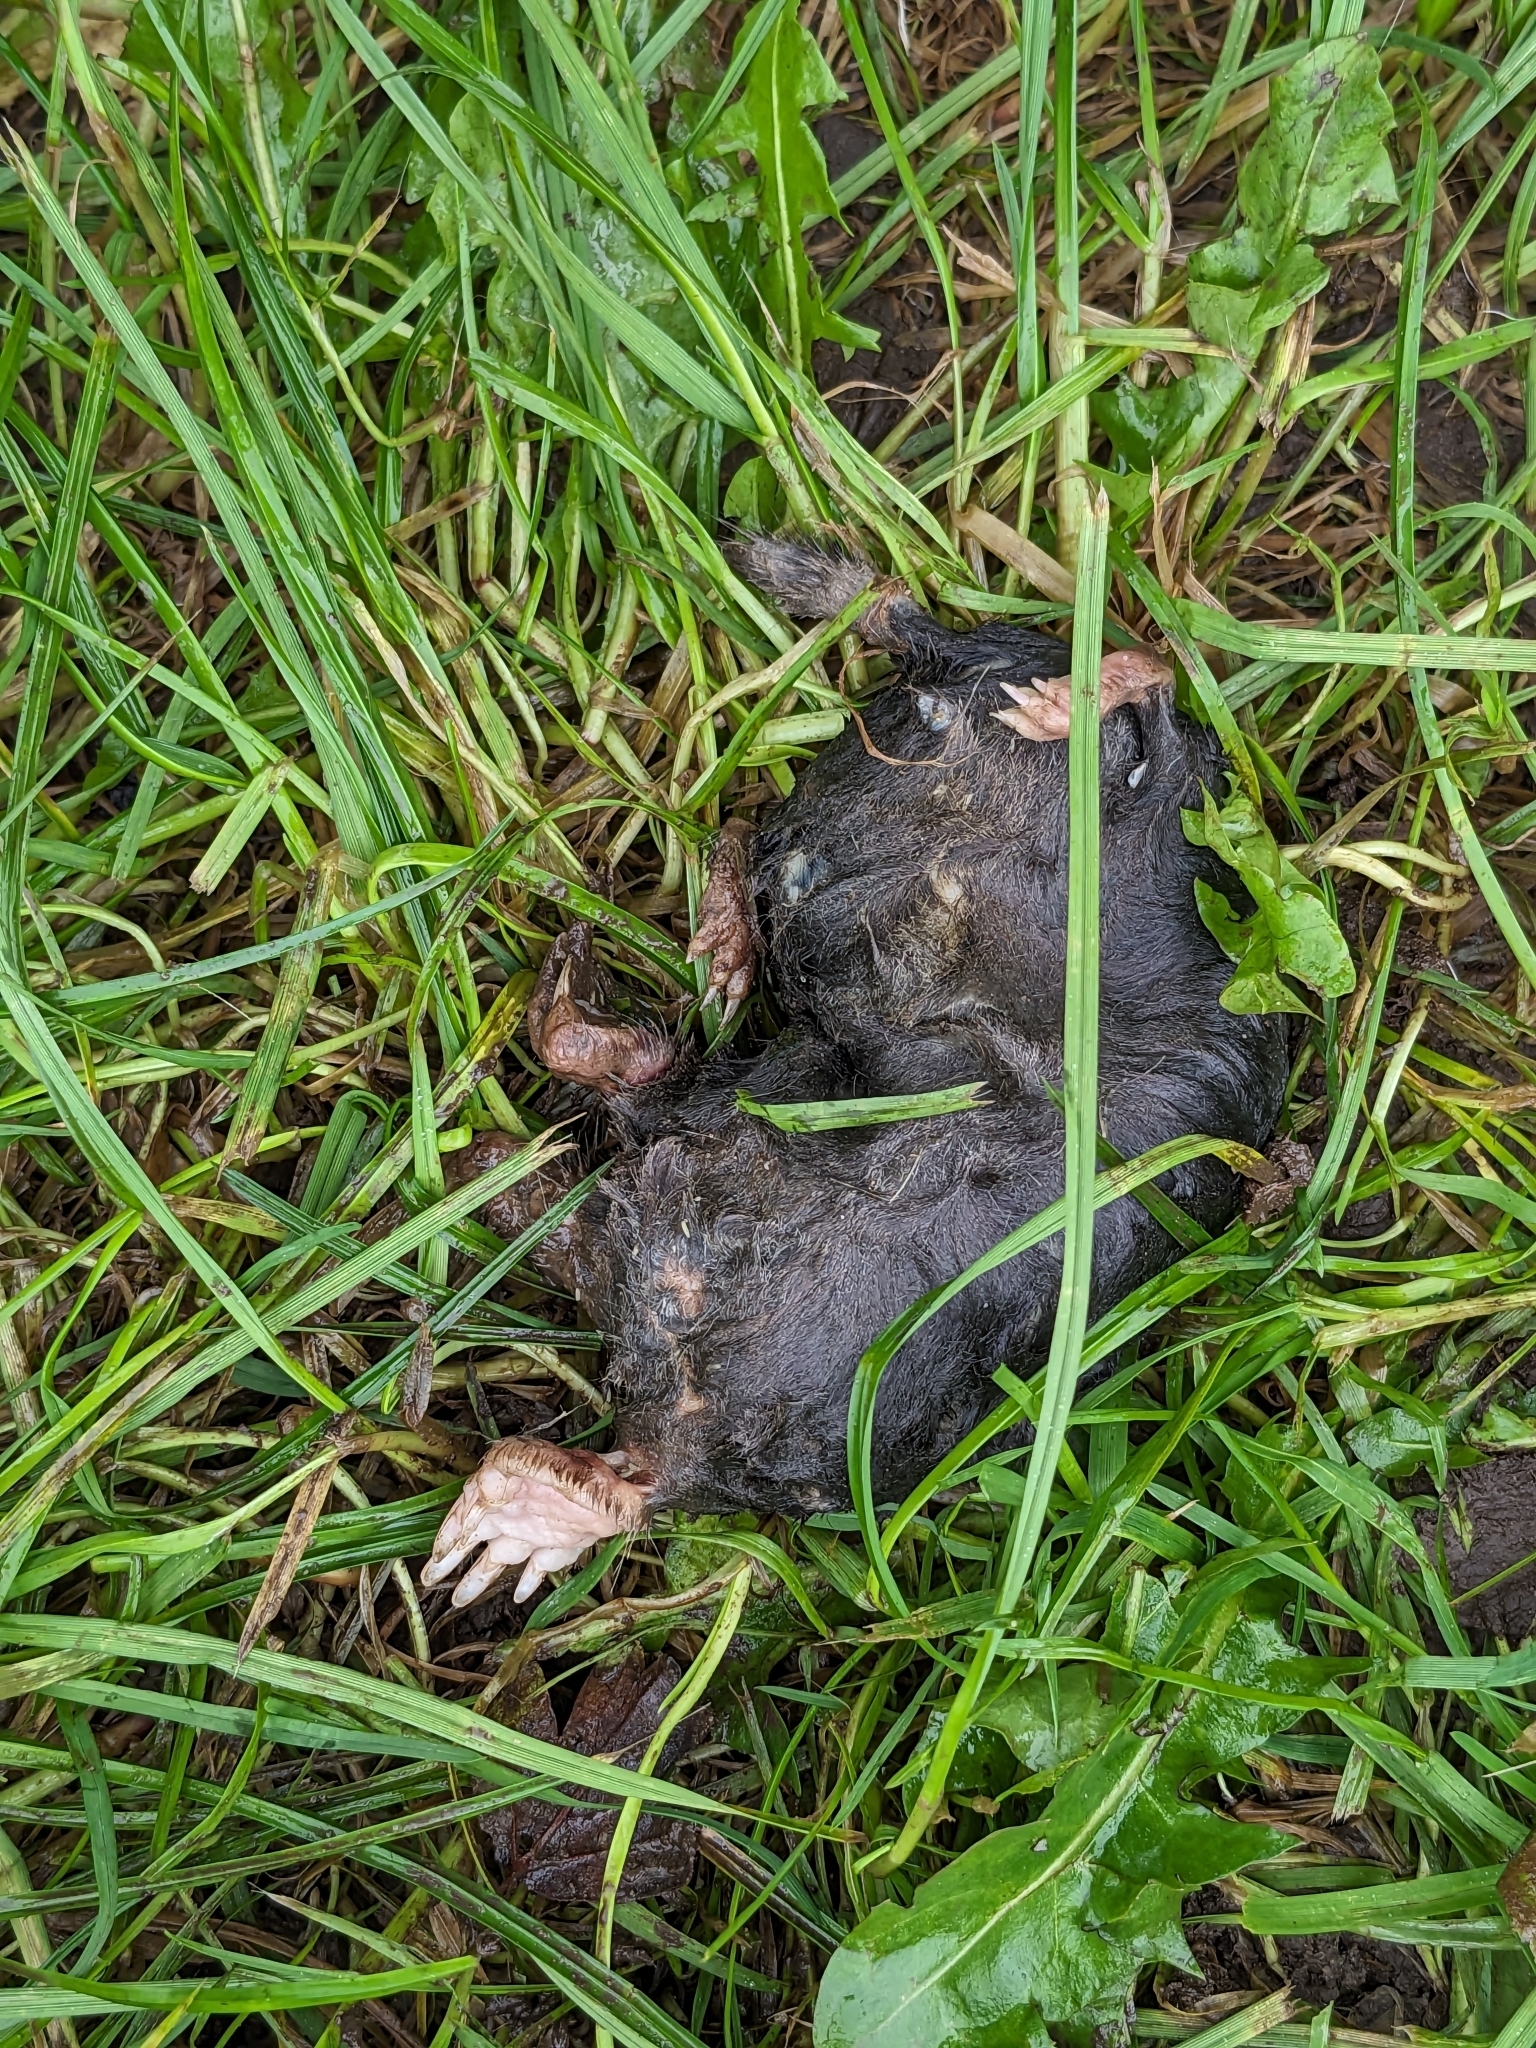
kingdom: Animalia
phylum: Chordata
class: Mammalia
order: Soricomorpha
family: Talpidae
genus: Talpa
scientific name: Talpa europaea
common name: European mole
